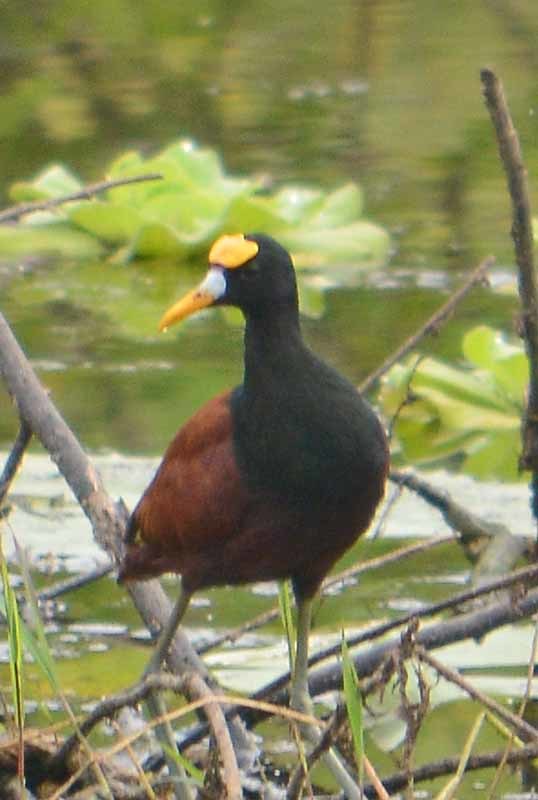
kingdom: Animalia
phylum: Chordata
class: Aves
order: Charadriiformes
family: Jacanidae
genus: Jacana
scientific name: Jacana spinosa
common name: Northern jacana
